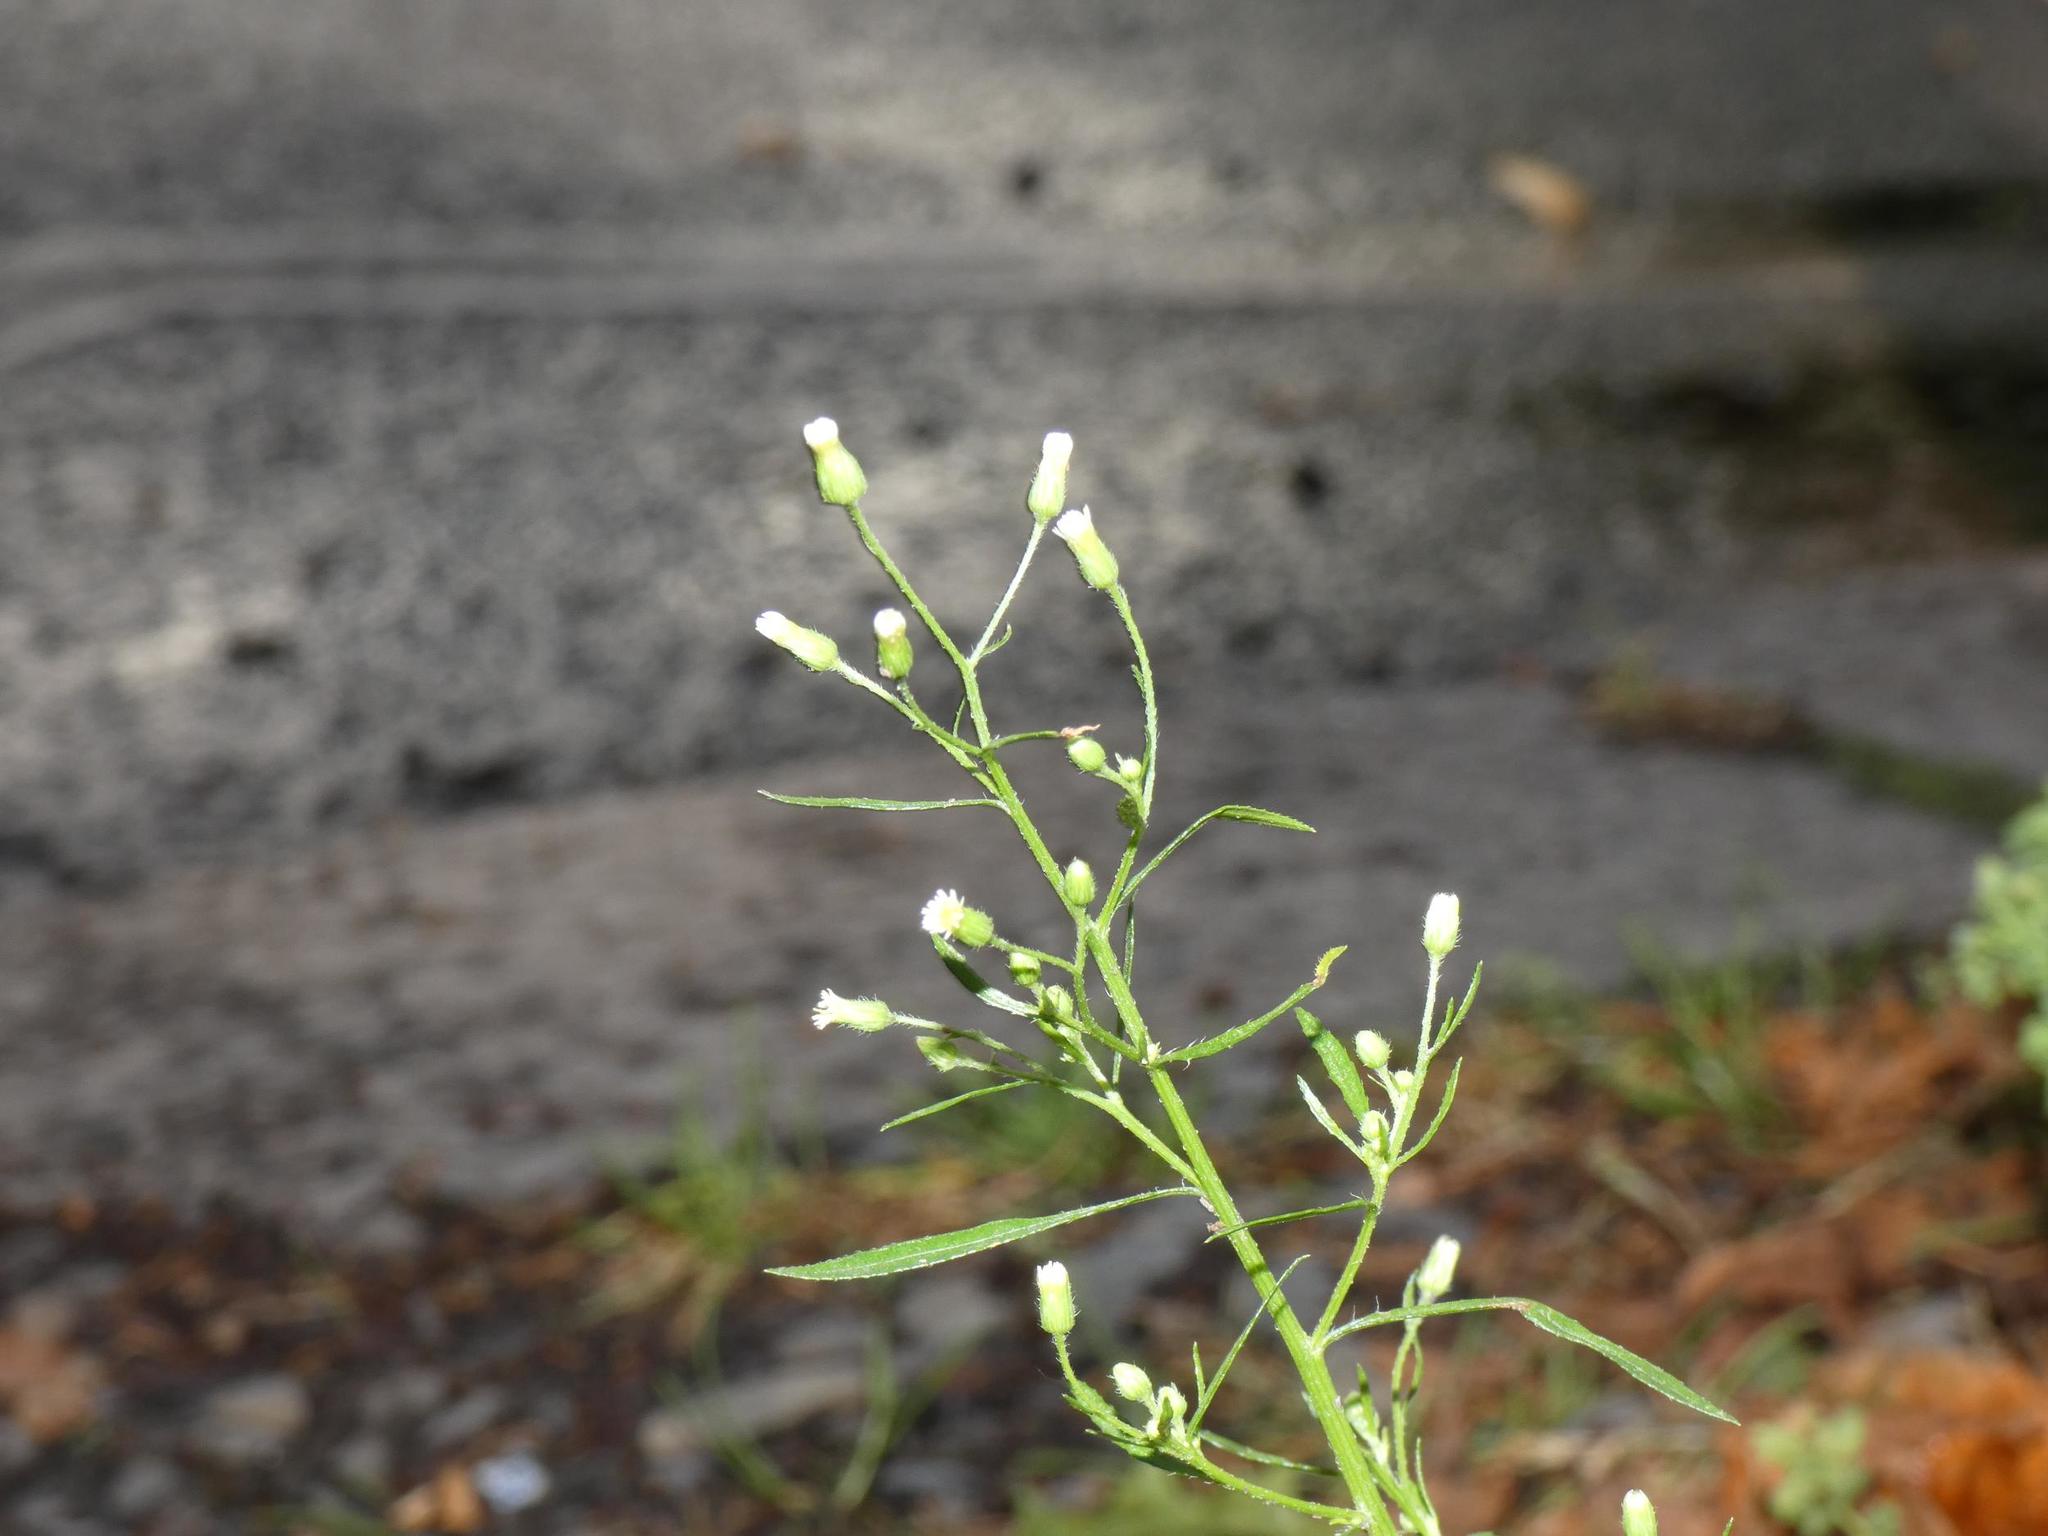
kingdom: Plantae
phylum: Tracheophyta
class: Magnoliopsida
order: Asterales
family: Asteraceae
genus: Erigeron
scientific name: Erigeron canadensis
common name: Canadian fleabane
